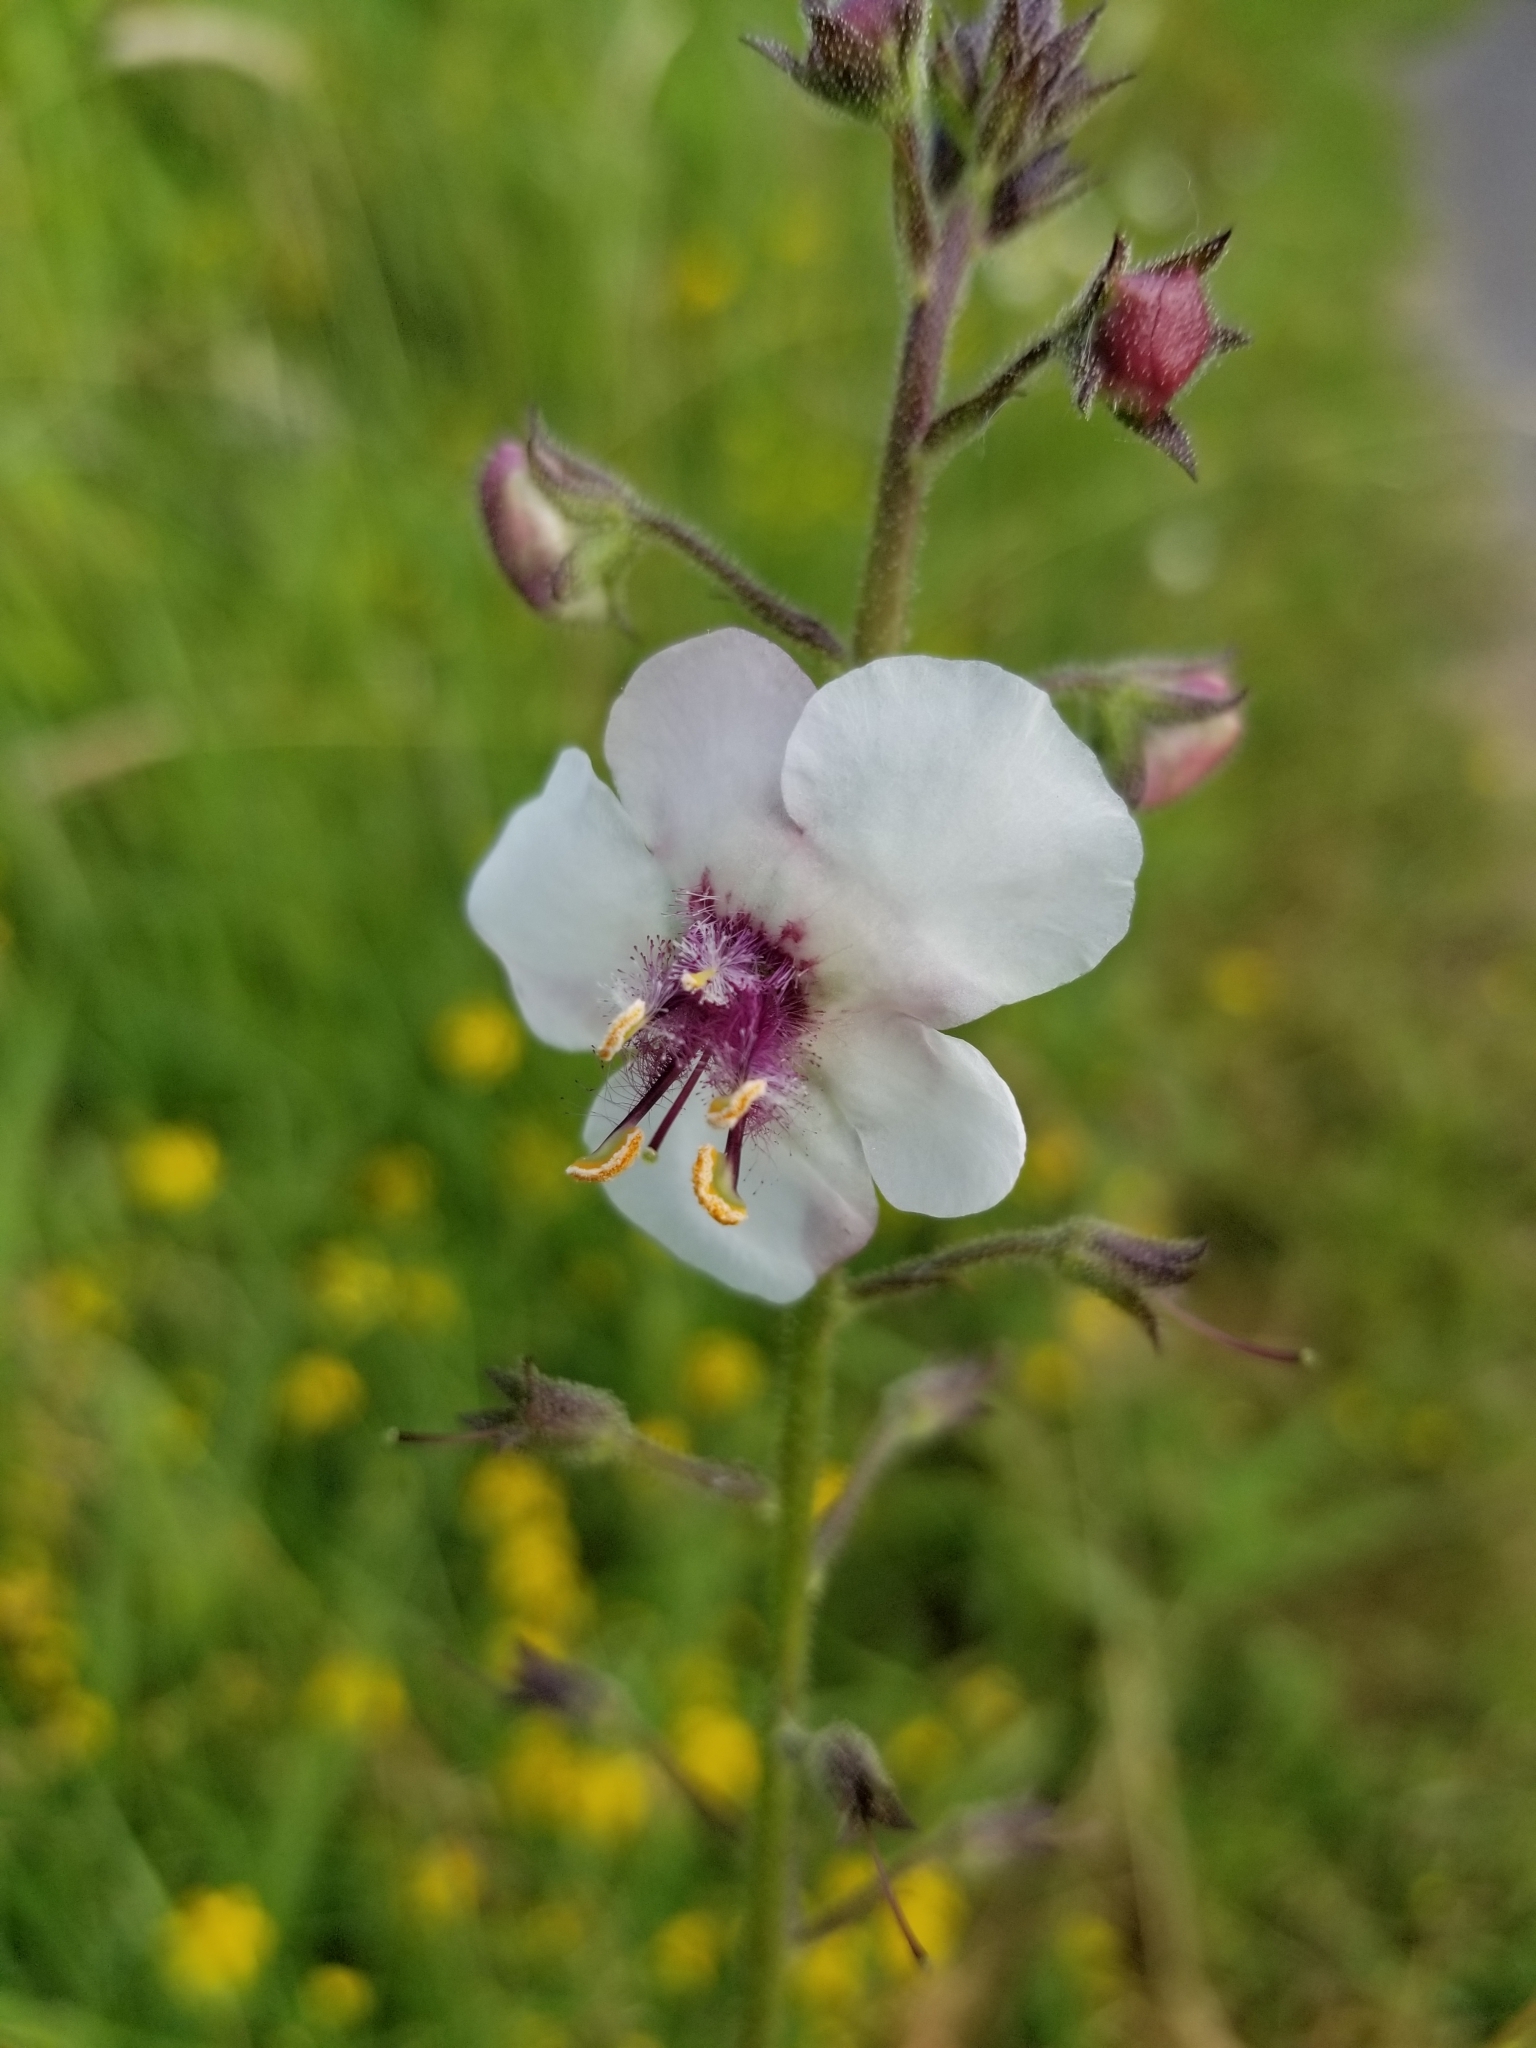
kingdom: Plantae
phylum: Tracheophyta
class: Magnoliopsida
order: Lamiales
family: Scrophulariaceae
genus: Verbascum
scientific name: Verbascum blattaria
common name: Moth mullein
